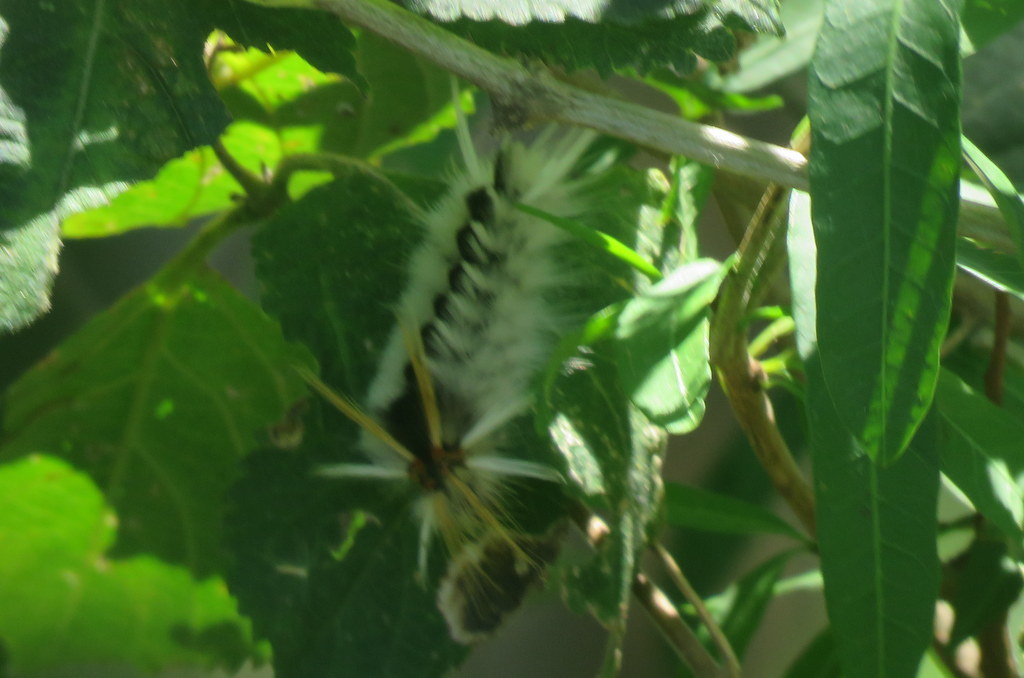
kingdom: Animalia
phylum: Arthropoda
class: Insecta
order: Lepidoptera
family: Erebidae
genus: Halysidota
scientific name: Halysidota ruscheweyhi
